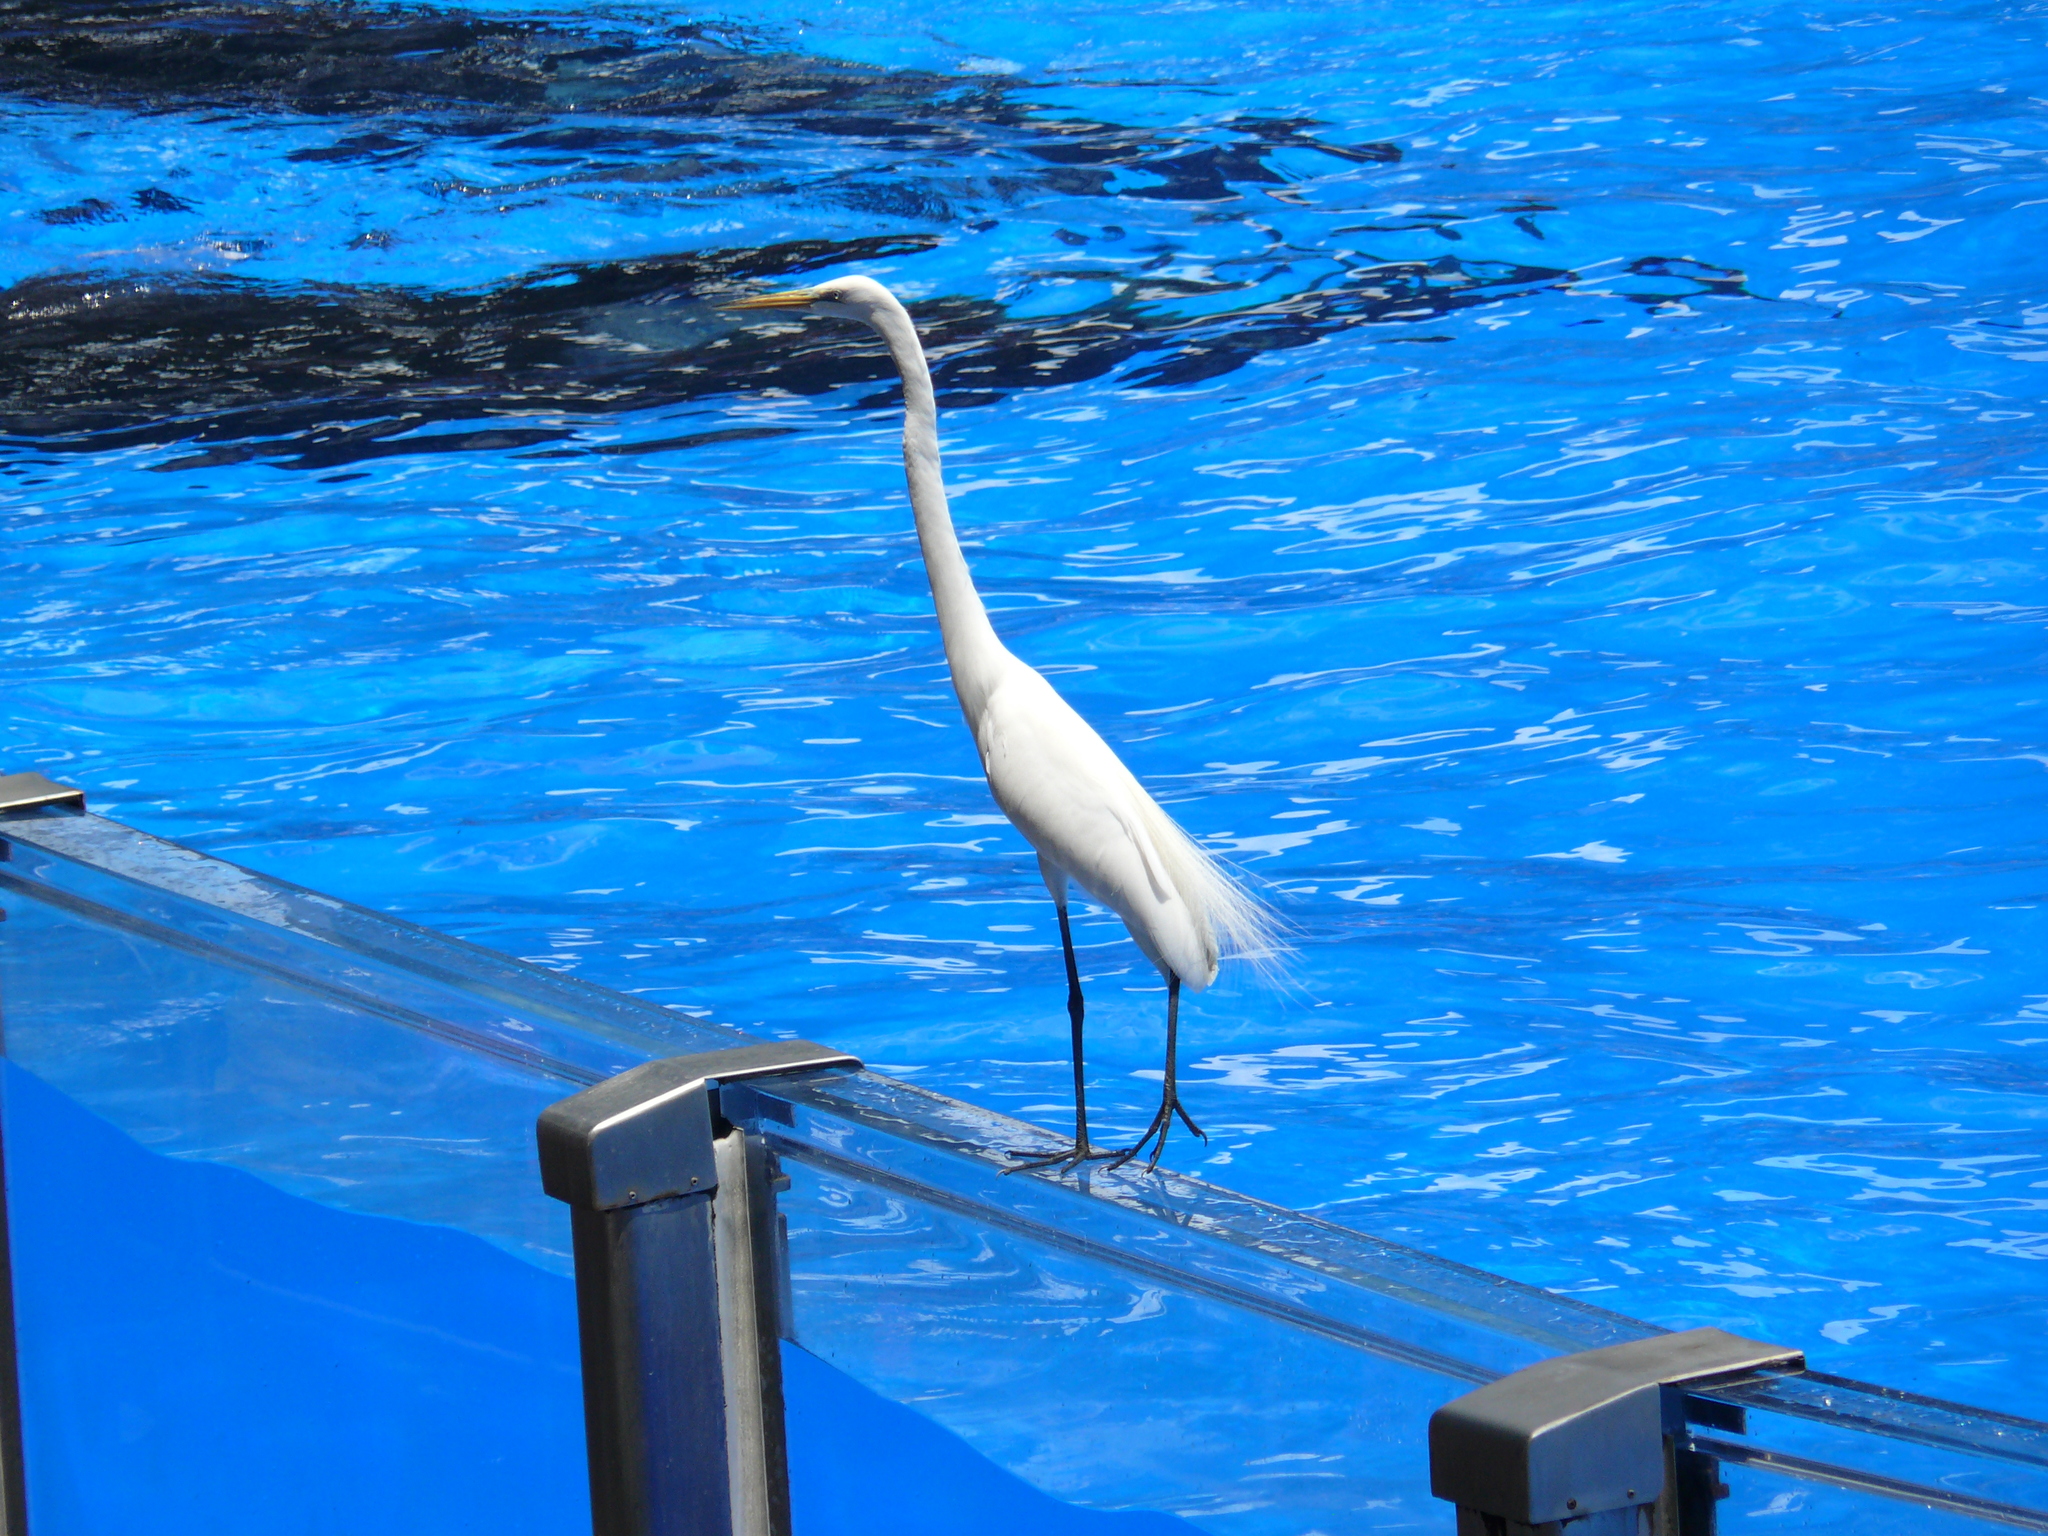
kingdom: Animalia
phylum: Chordata
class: Aves
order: Pelecaniformes
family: Ardeidae
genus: Ardea
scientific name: Ardea alba
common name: Great egret
